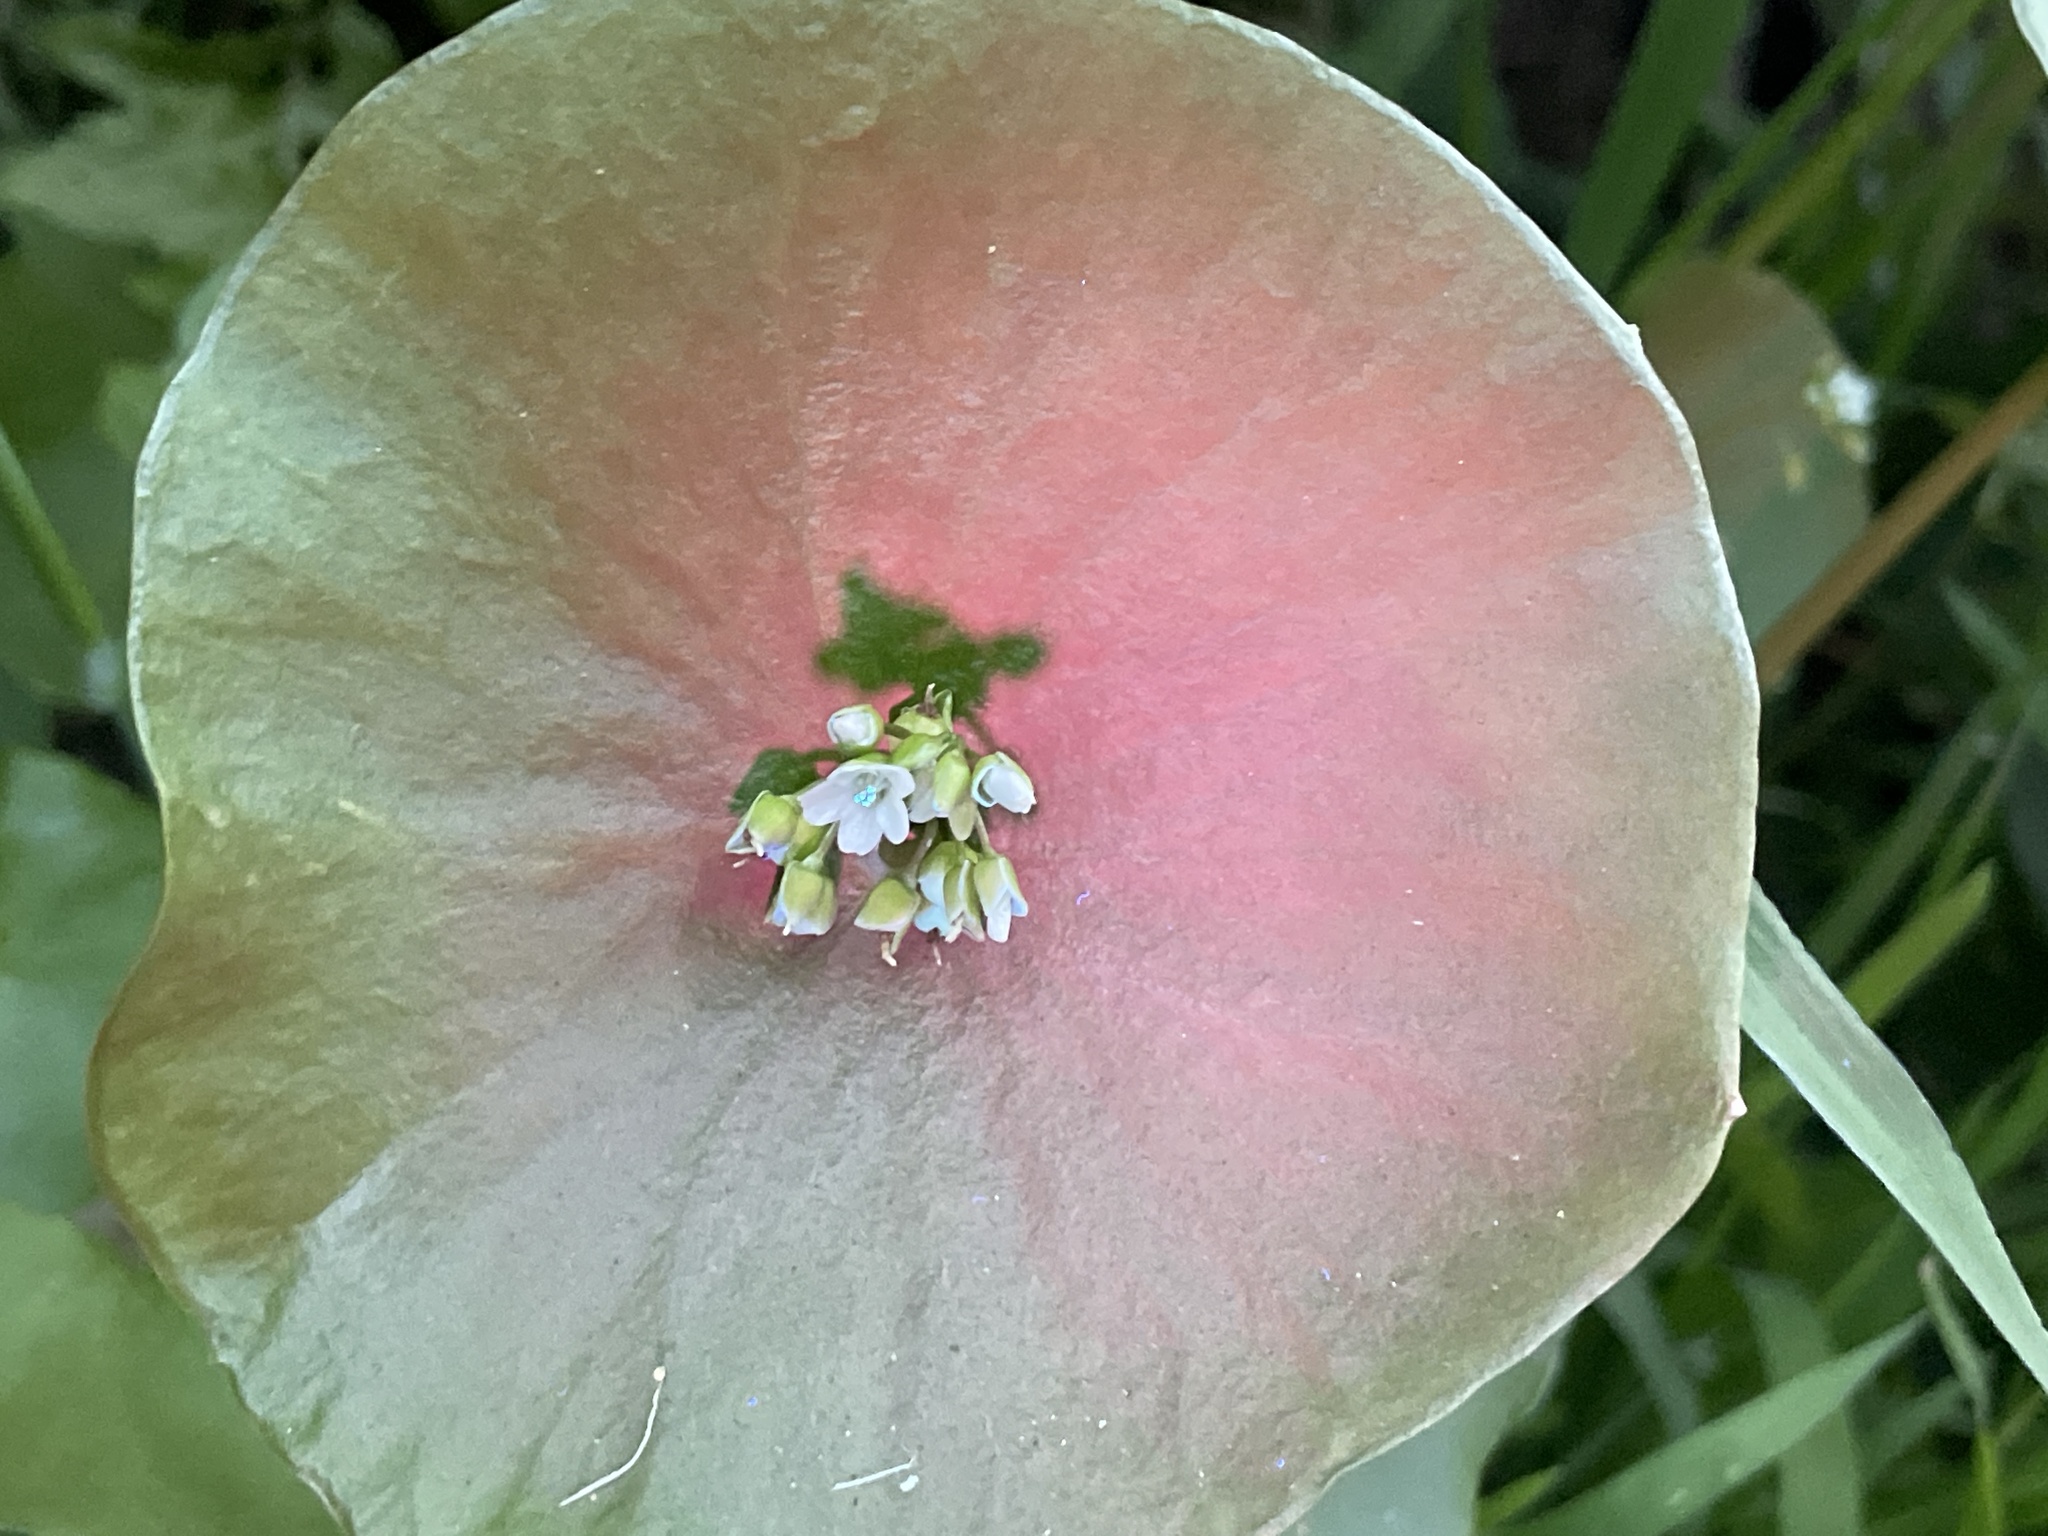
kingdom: Plantae
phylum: Tracheophyta
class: Magnoliopsida
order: Caryophyllales
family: Montiaceae
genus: Claytonia
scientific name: Claytonia perfoliata
